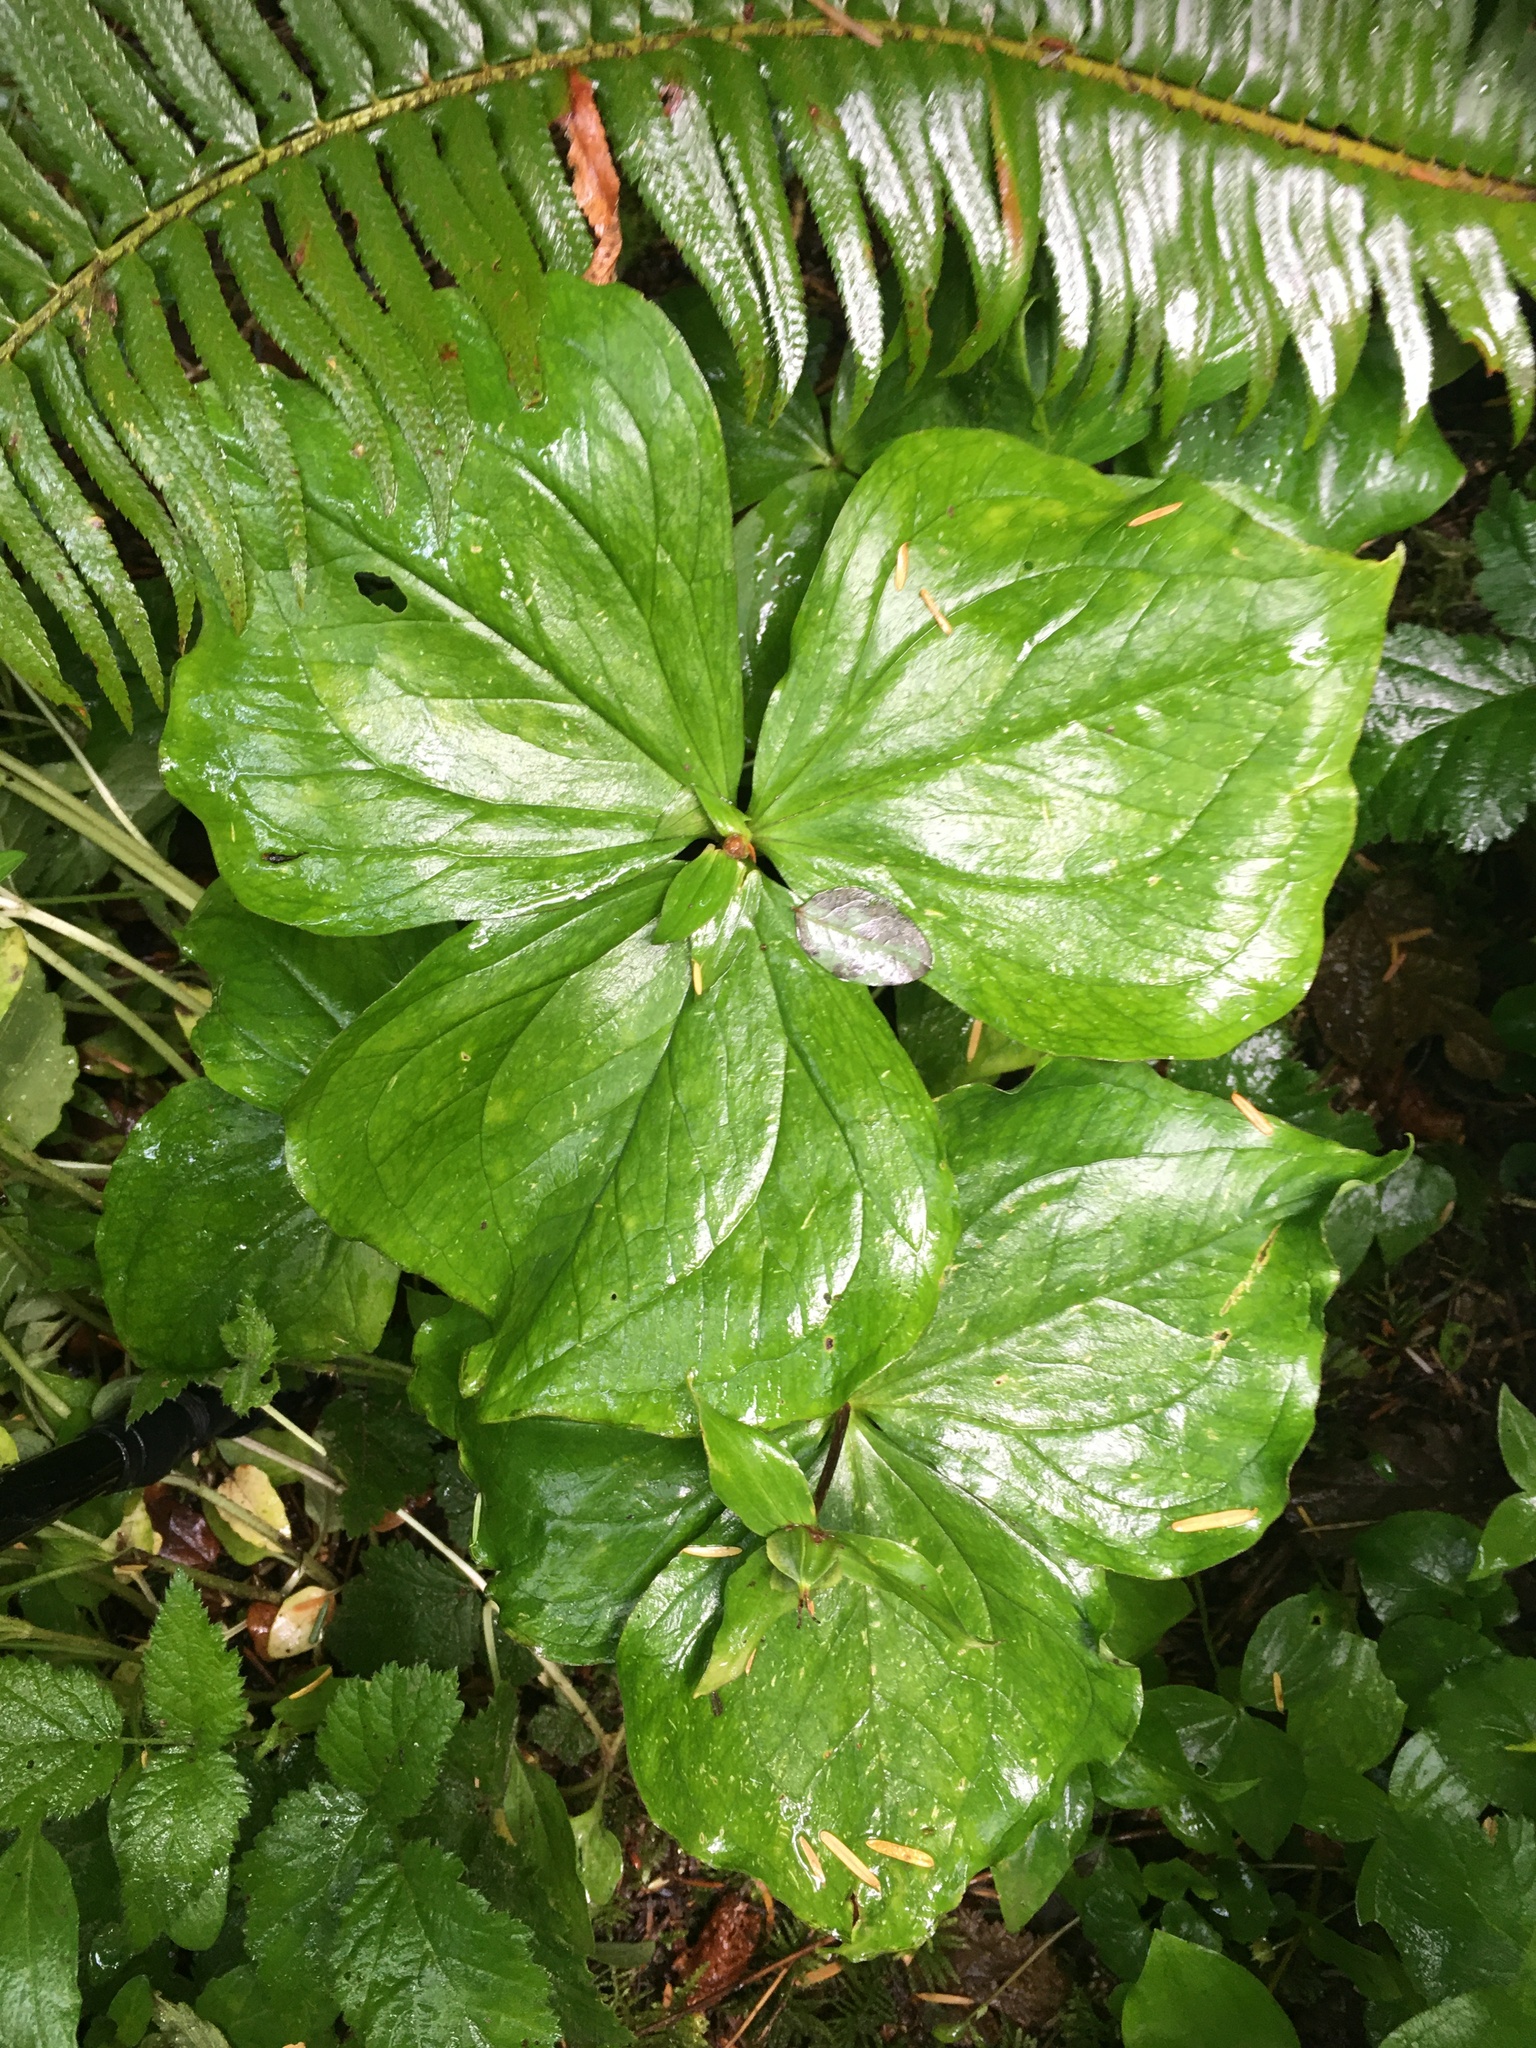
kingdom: Plantae
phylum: Tracheophyta
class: Liliopsida
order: Liliales
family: Melanthiaceae
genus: Trillium
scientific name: Trillium ovatum
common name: Pacific trillium
